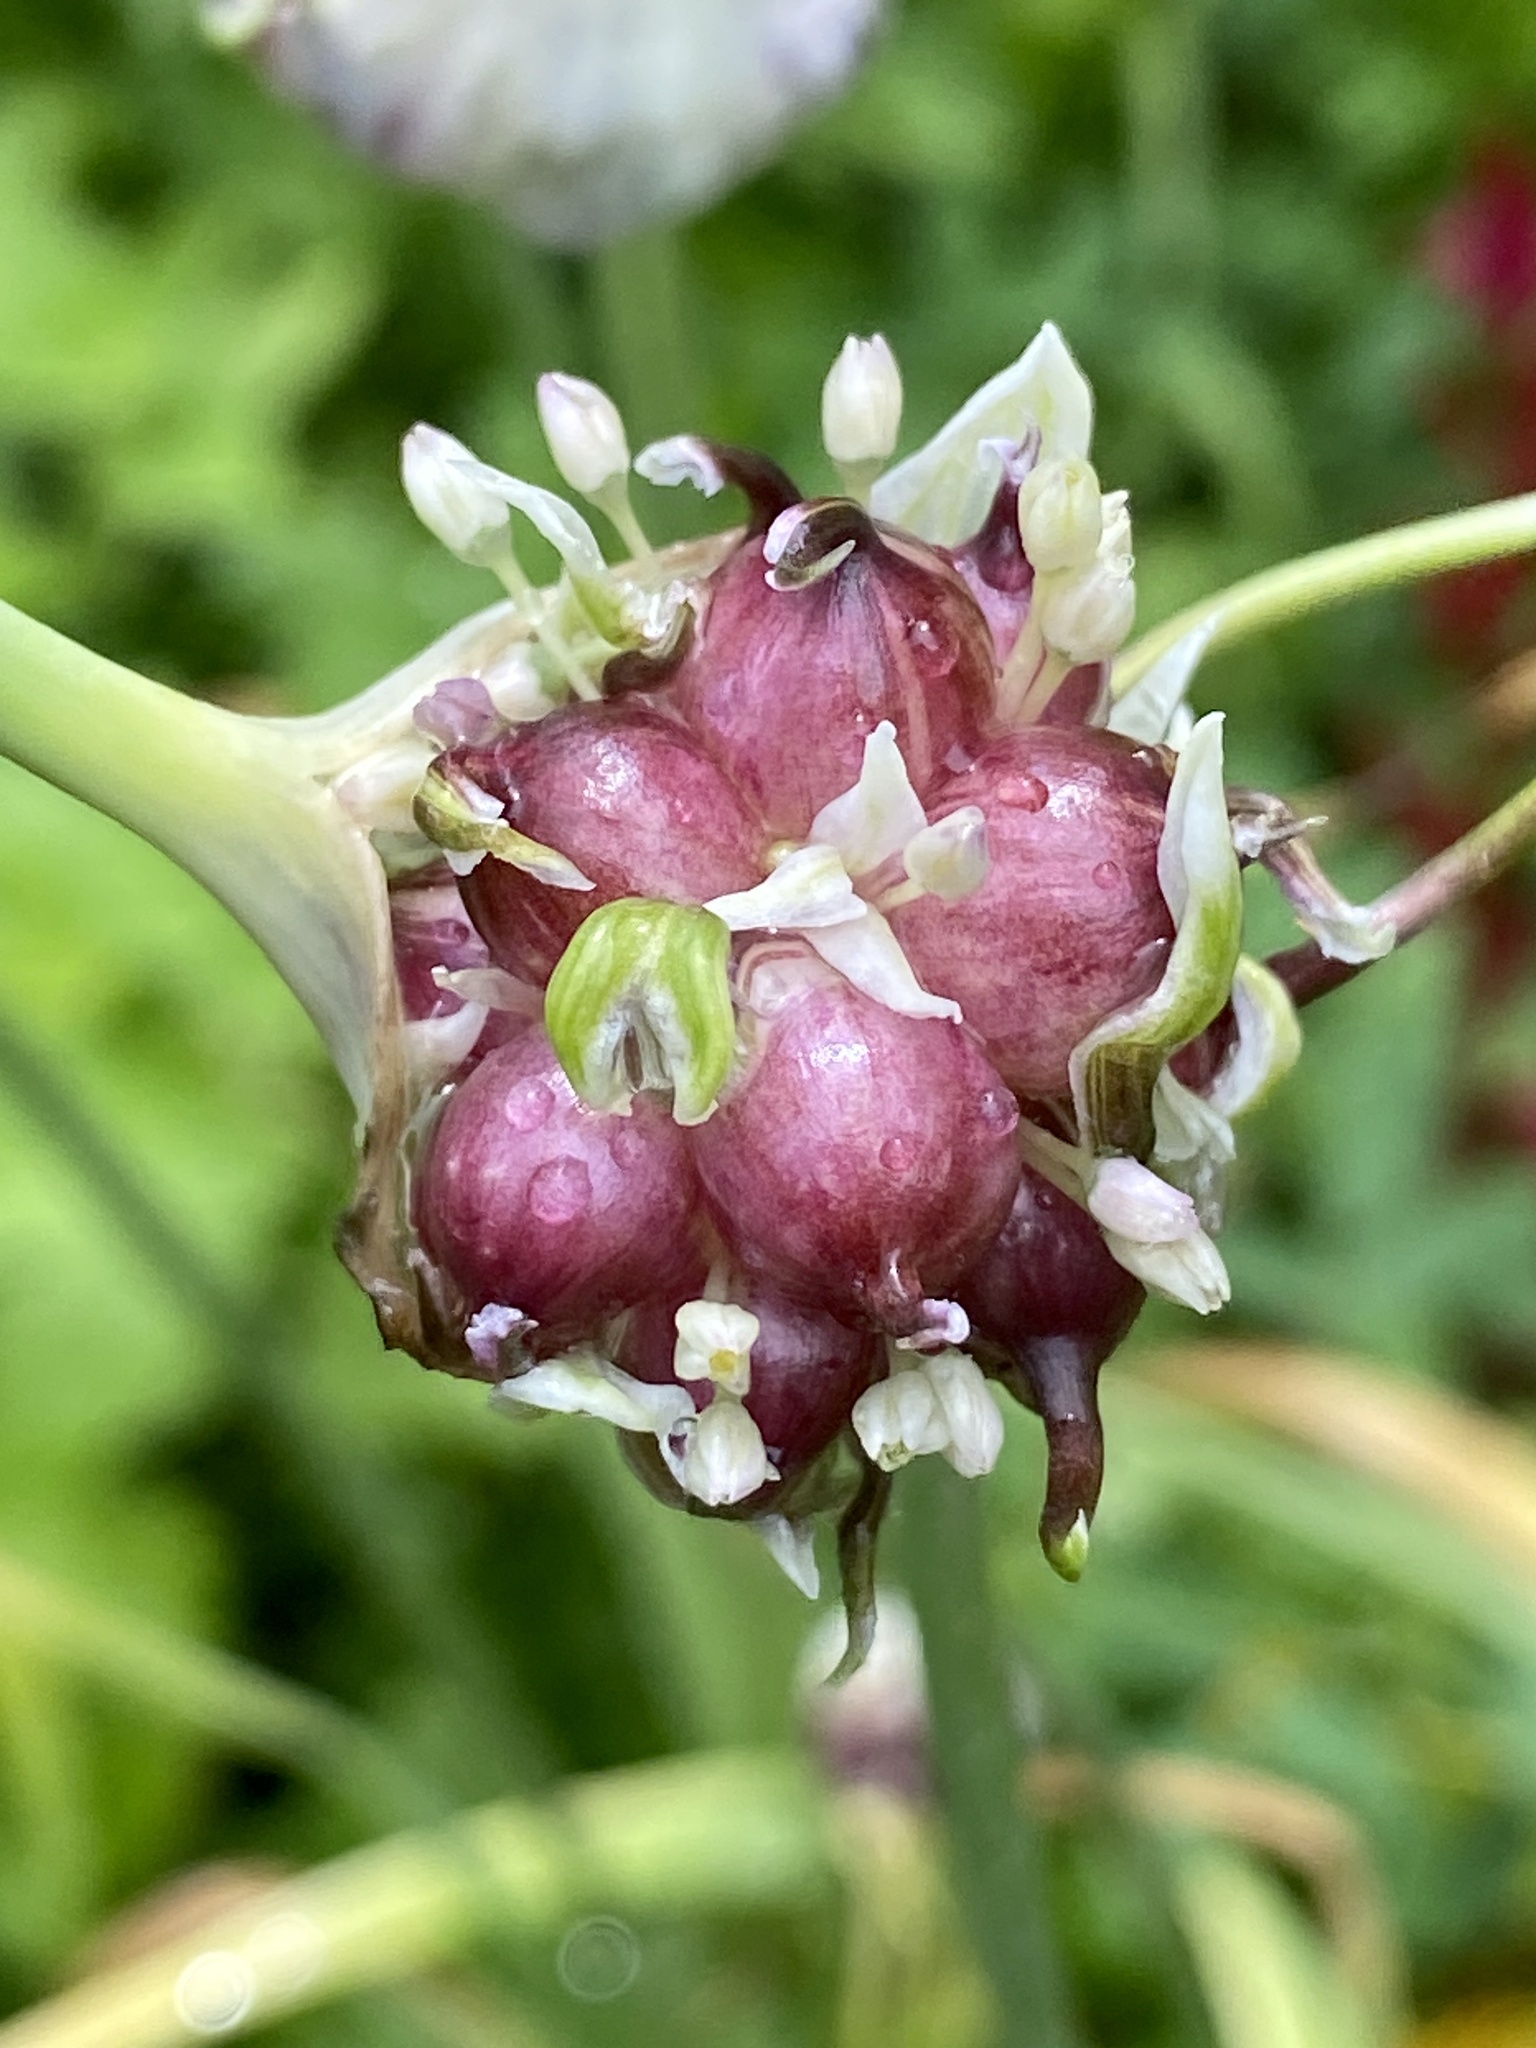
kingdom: Plantae
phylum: Tracheophyta
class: Liliopsida
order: Asparagales
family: Amaryllidaceae
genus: Allium
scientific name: Allium sativum
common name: Garlic
